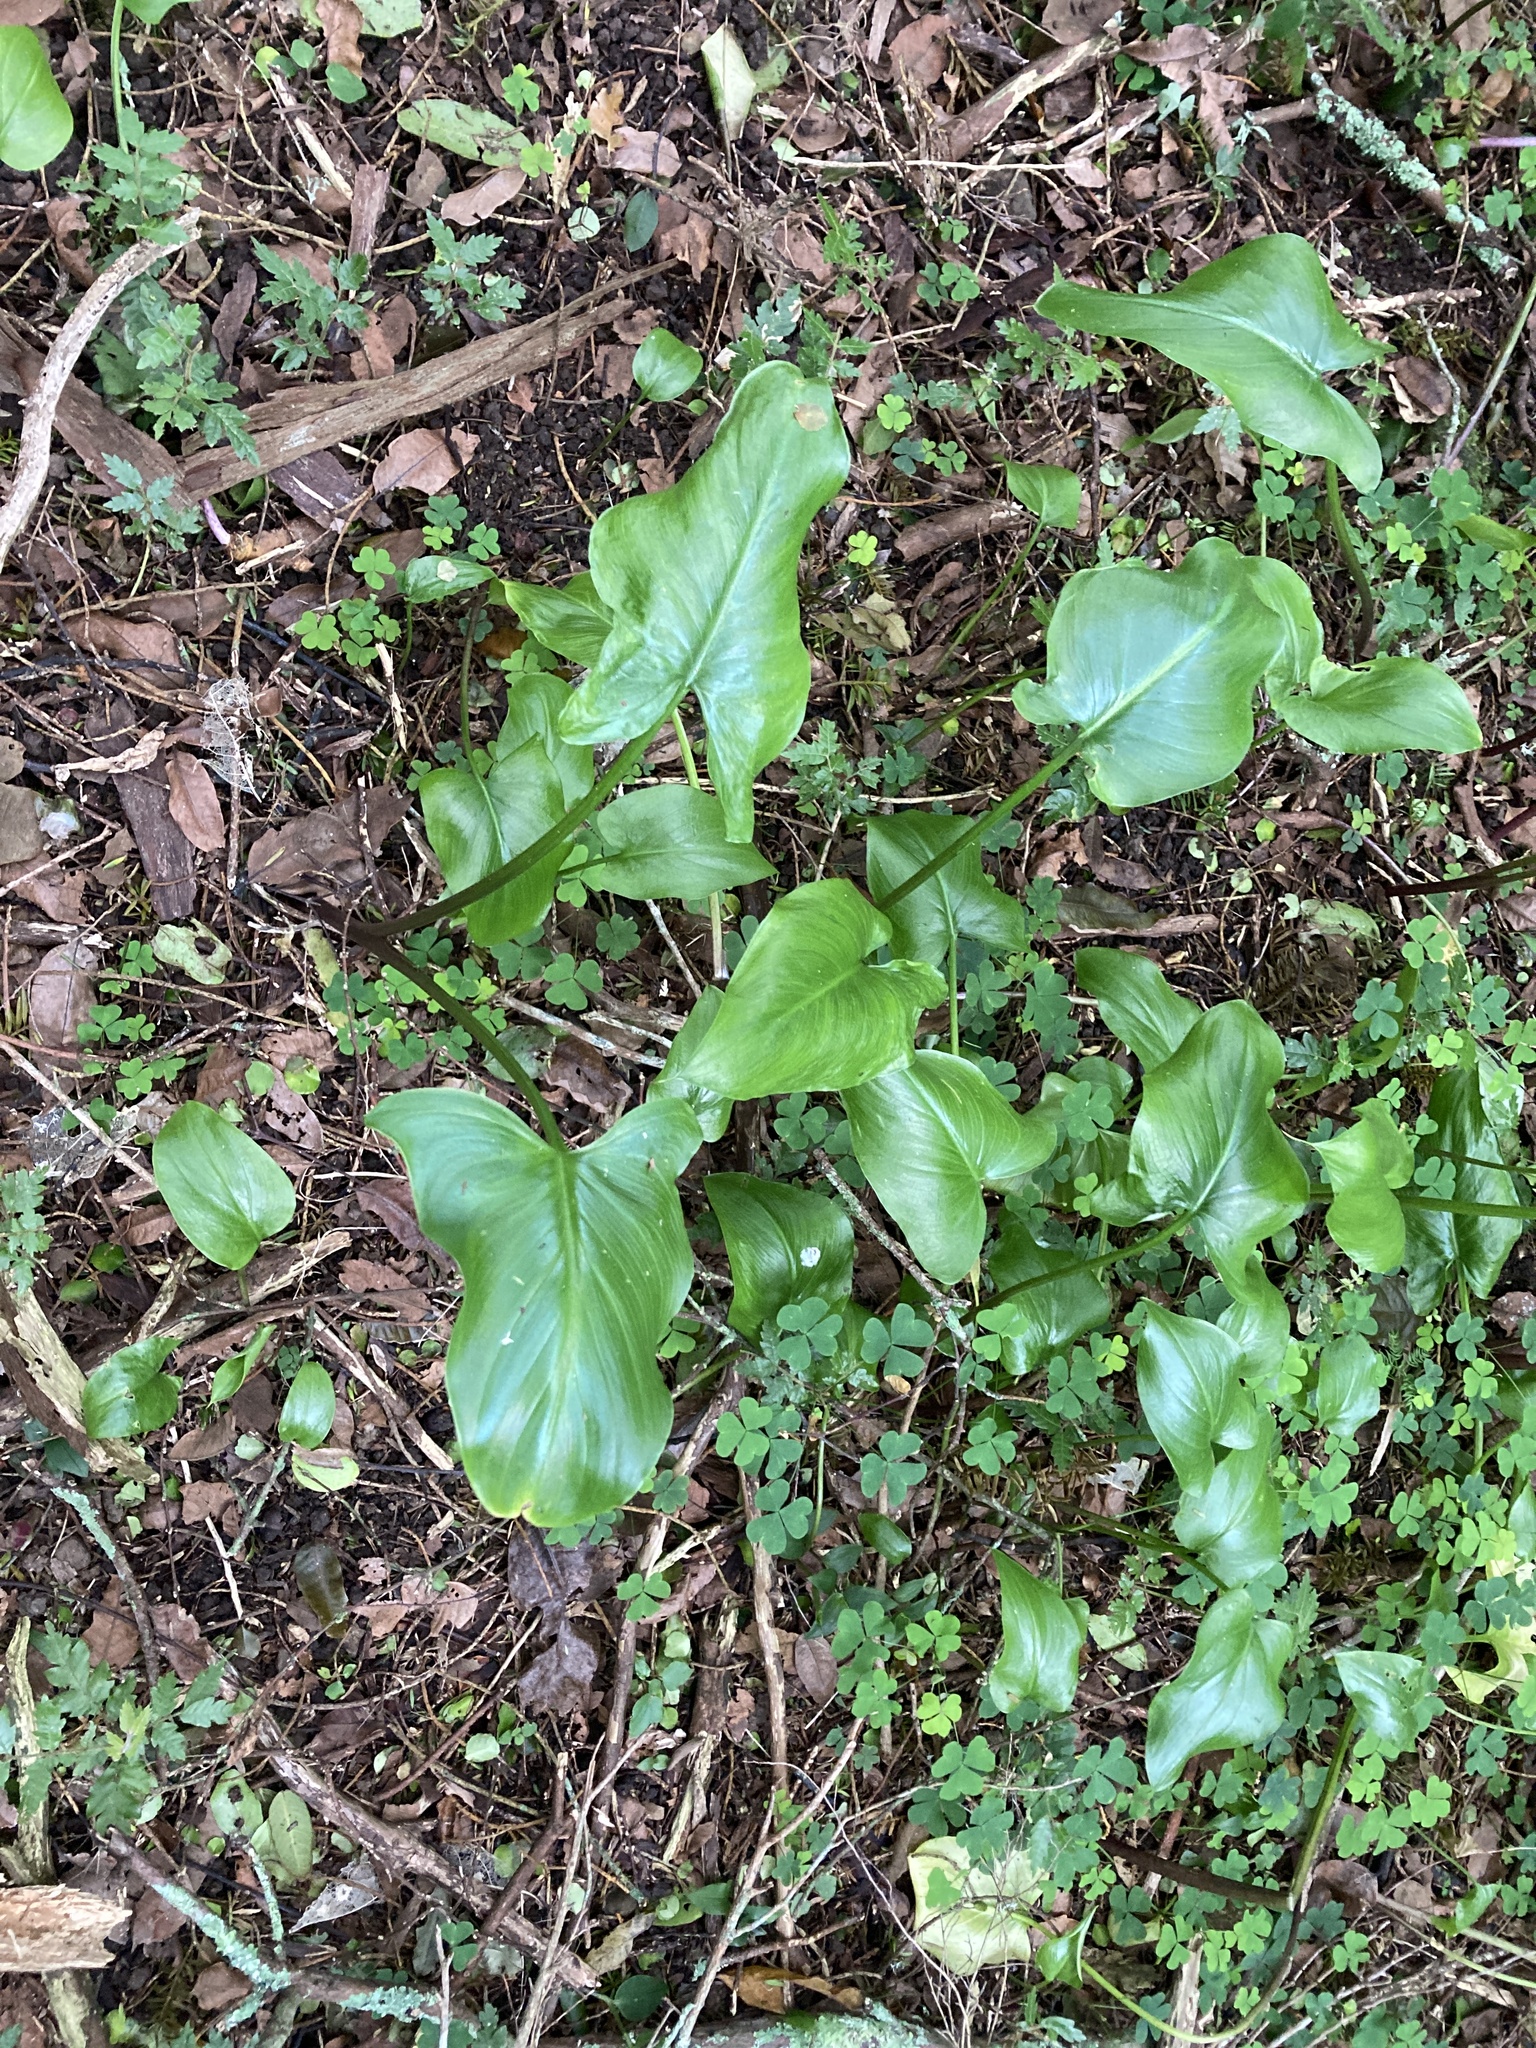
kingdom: Plantae
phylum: Tracheophyta
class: Liliopsida
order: Alismatales
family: Araceae
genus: Zantedeschia
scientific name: Zantedeschia aethiopica
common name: Altar-lily
